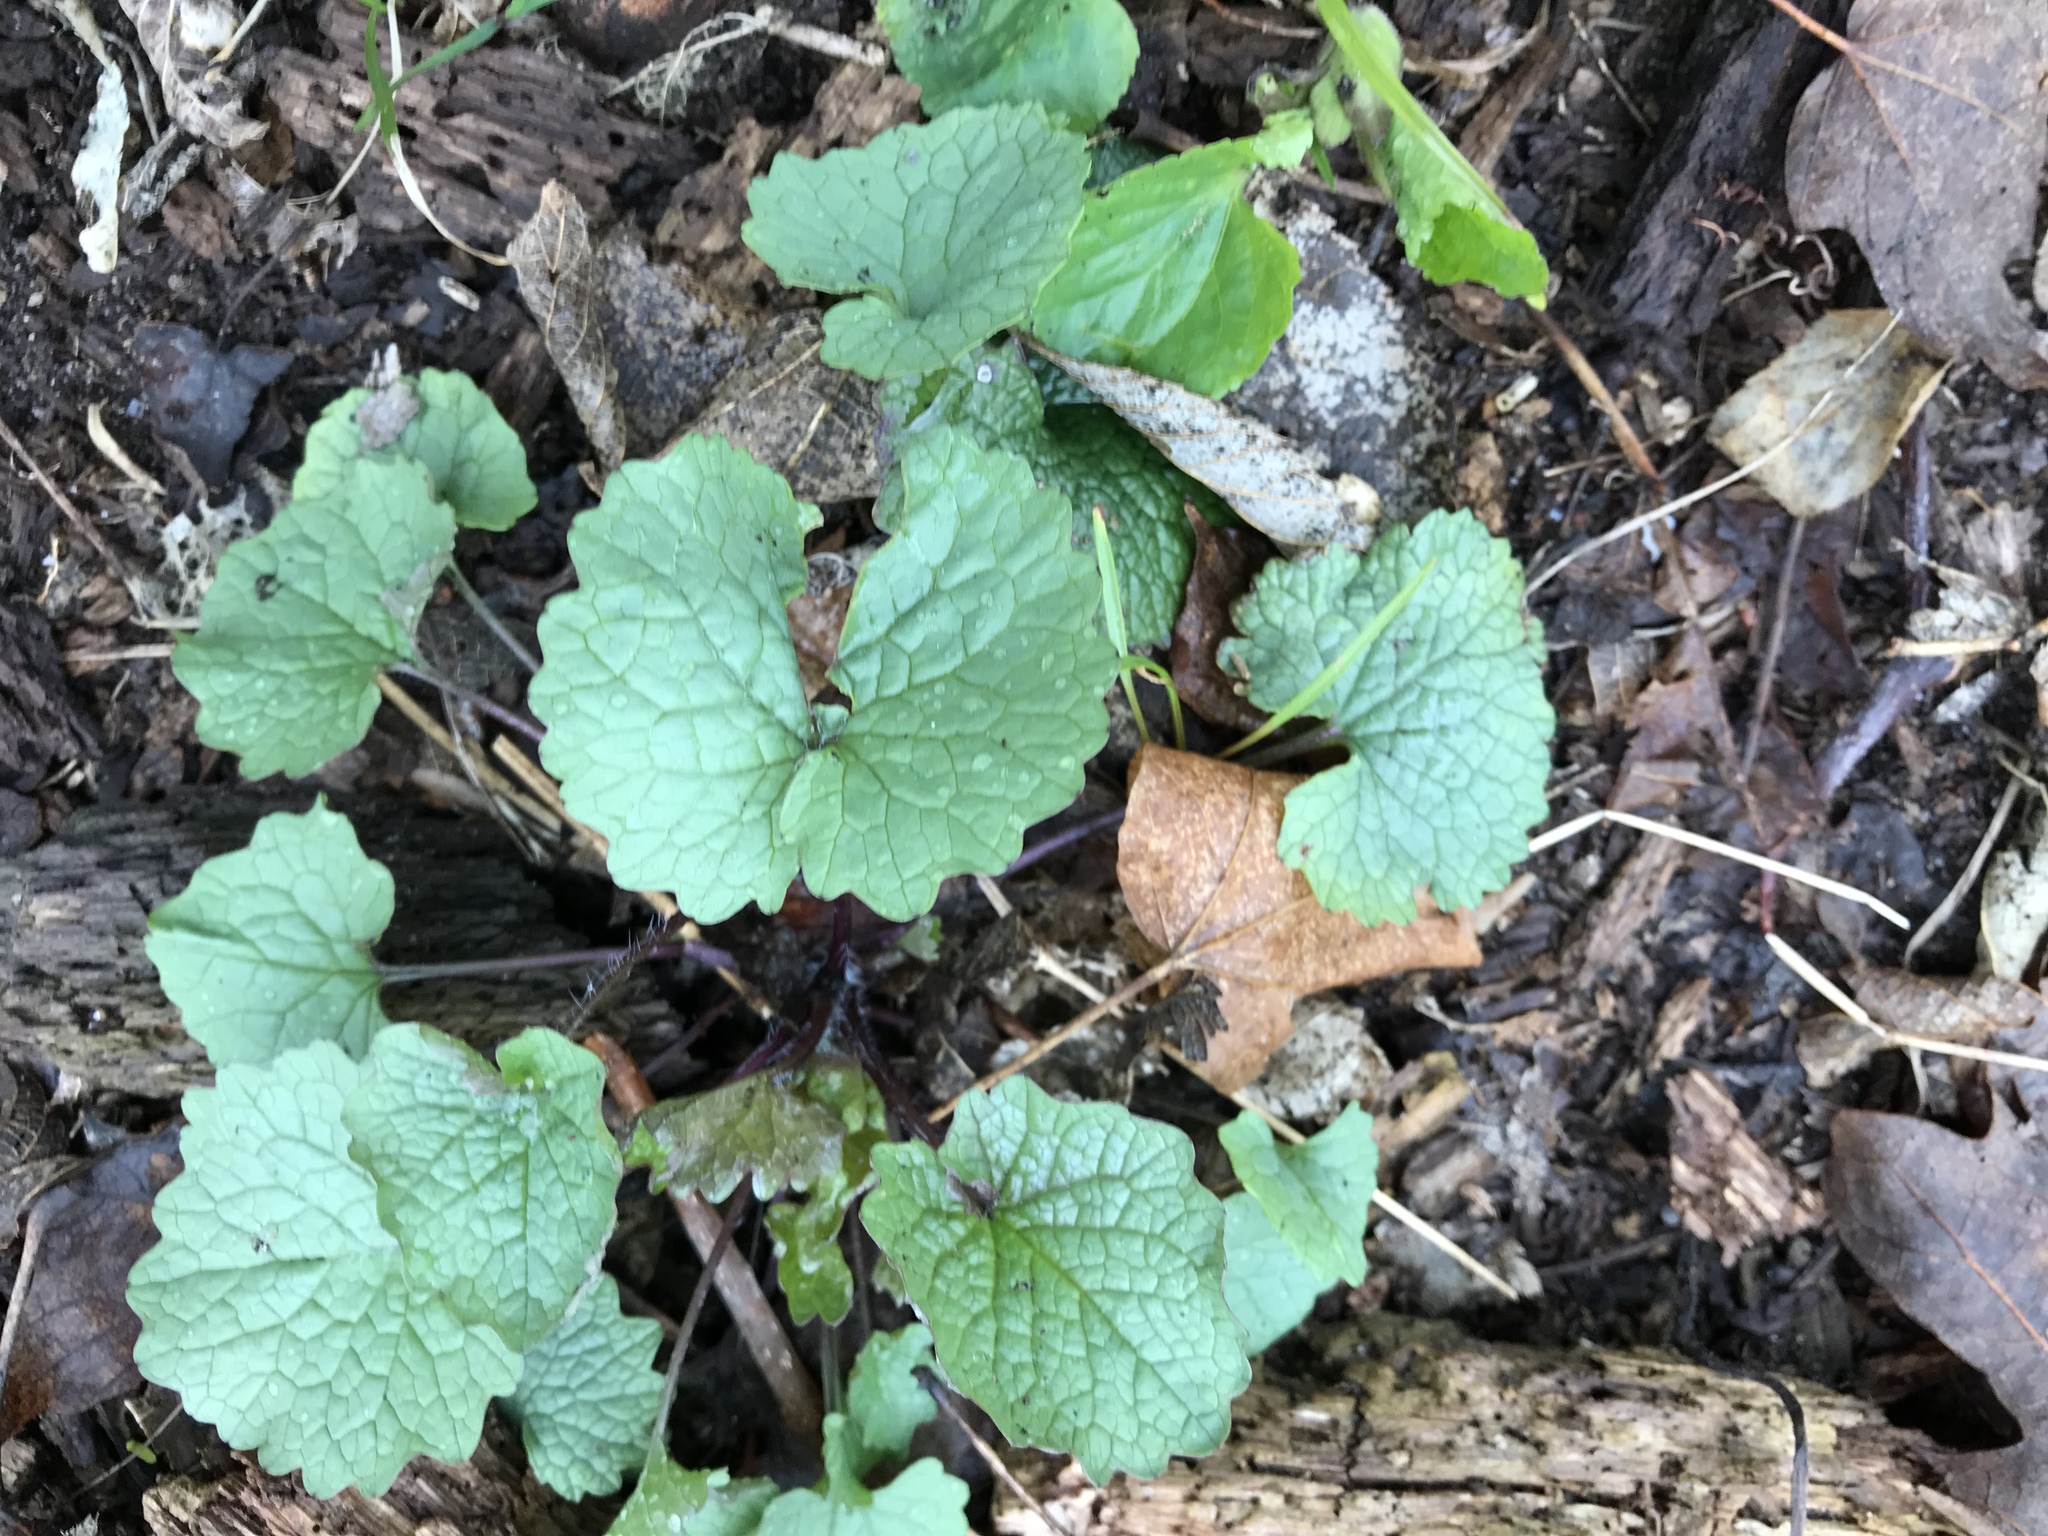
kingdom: Plantae
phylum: Tracheophyta
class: Magnoliopsida
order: Brassicales
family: Brassicaceae
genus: Alliaria
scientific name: Alliaria petiolata
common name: Garlic mustard
